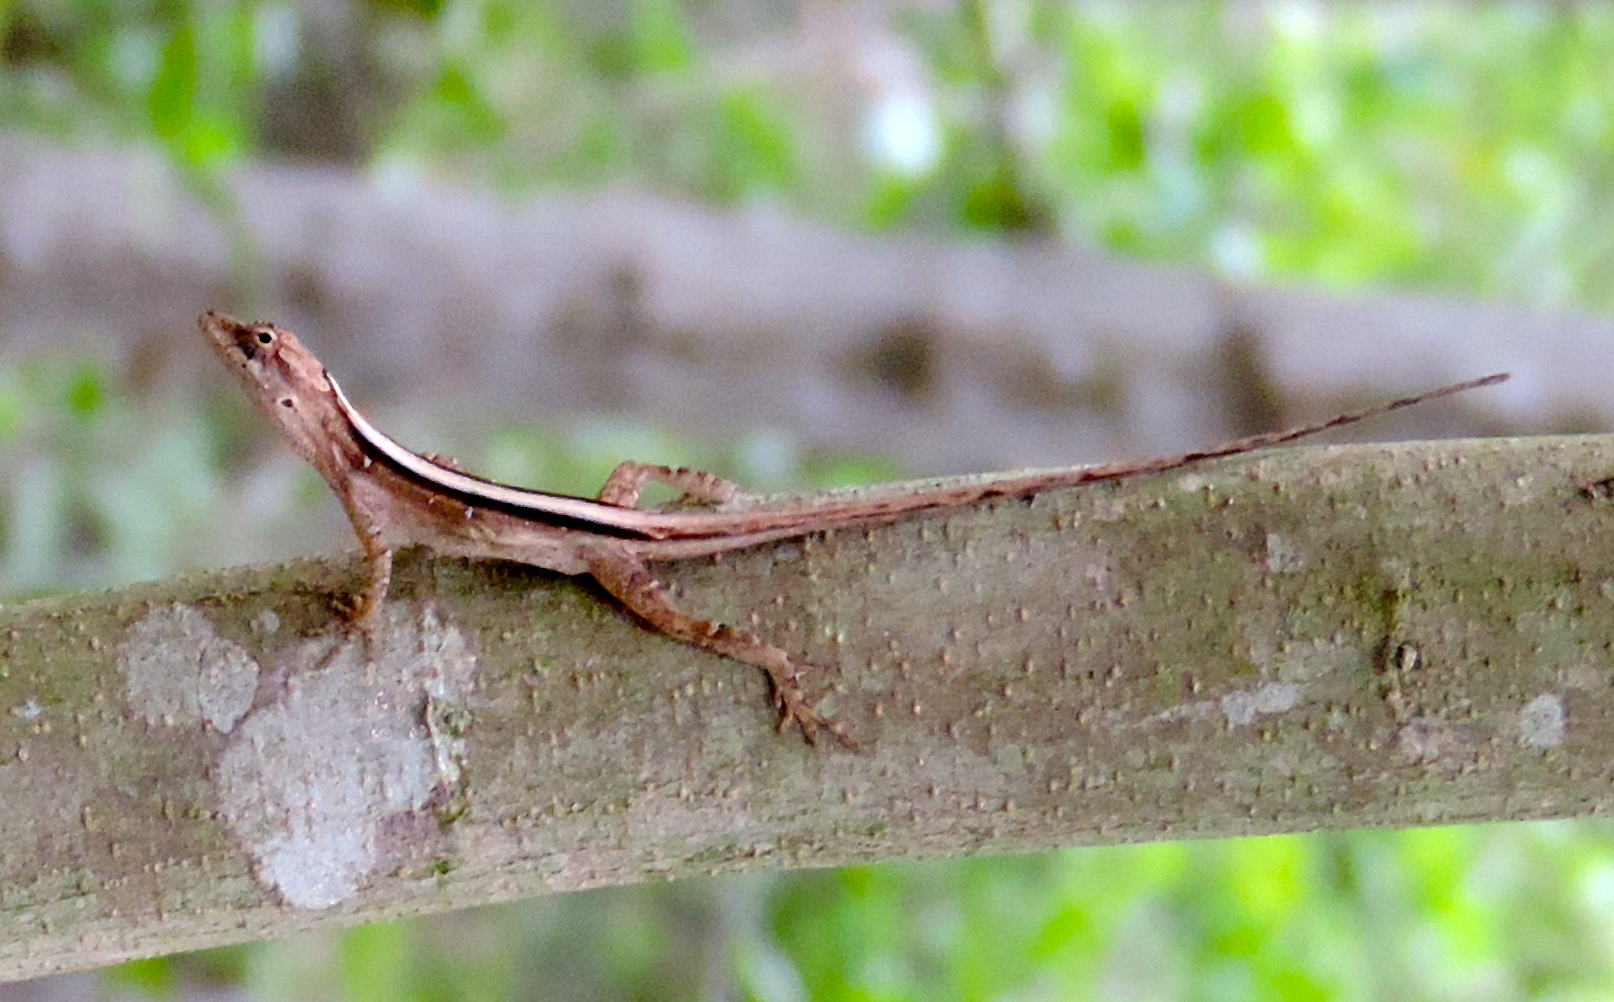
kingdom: Animalia
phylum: Chordata
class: Squamata
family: Dactyloidae
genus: Anolis
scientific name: Anolis nebulosus
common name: Clouded anole
